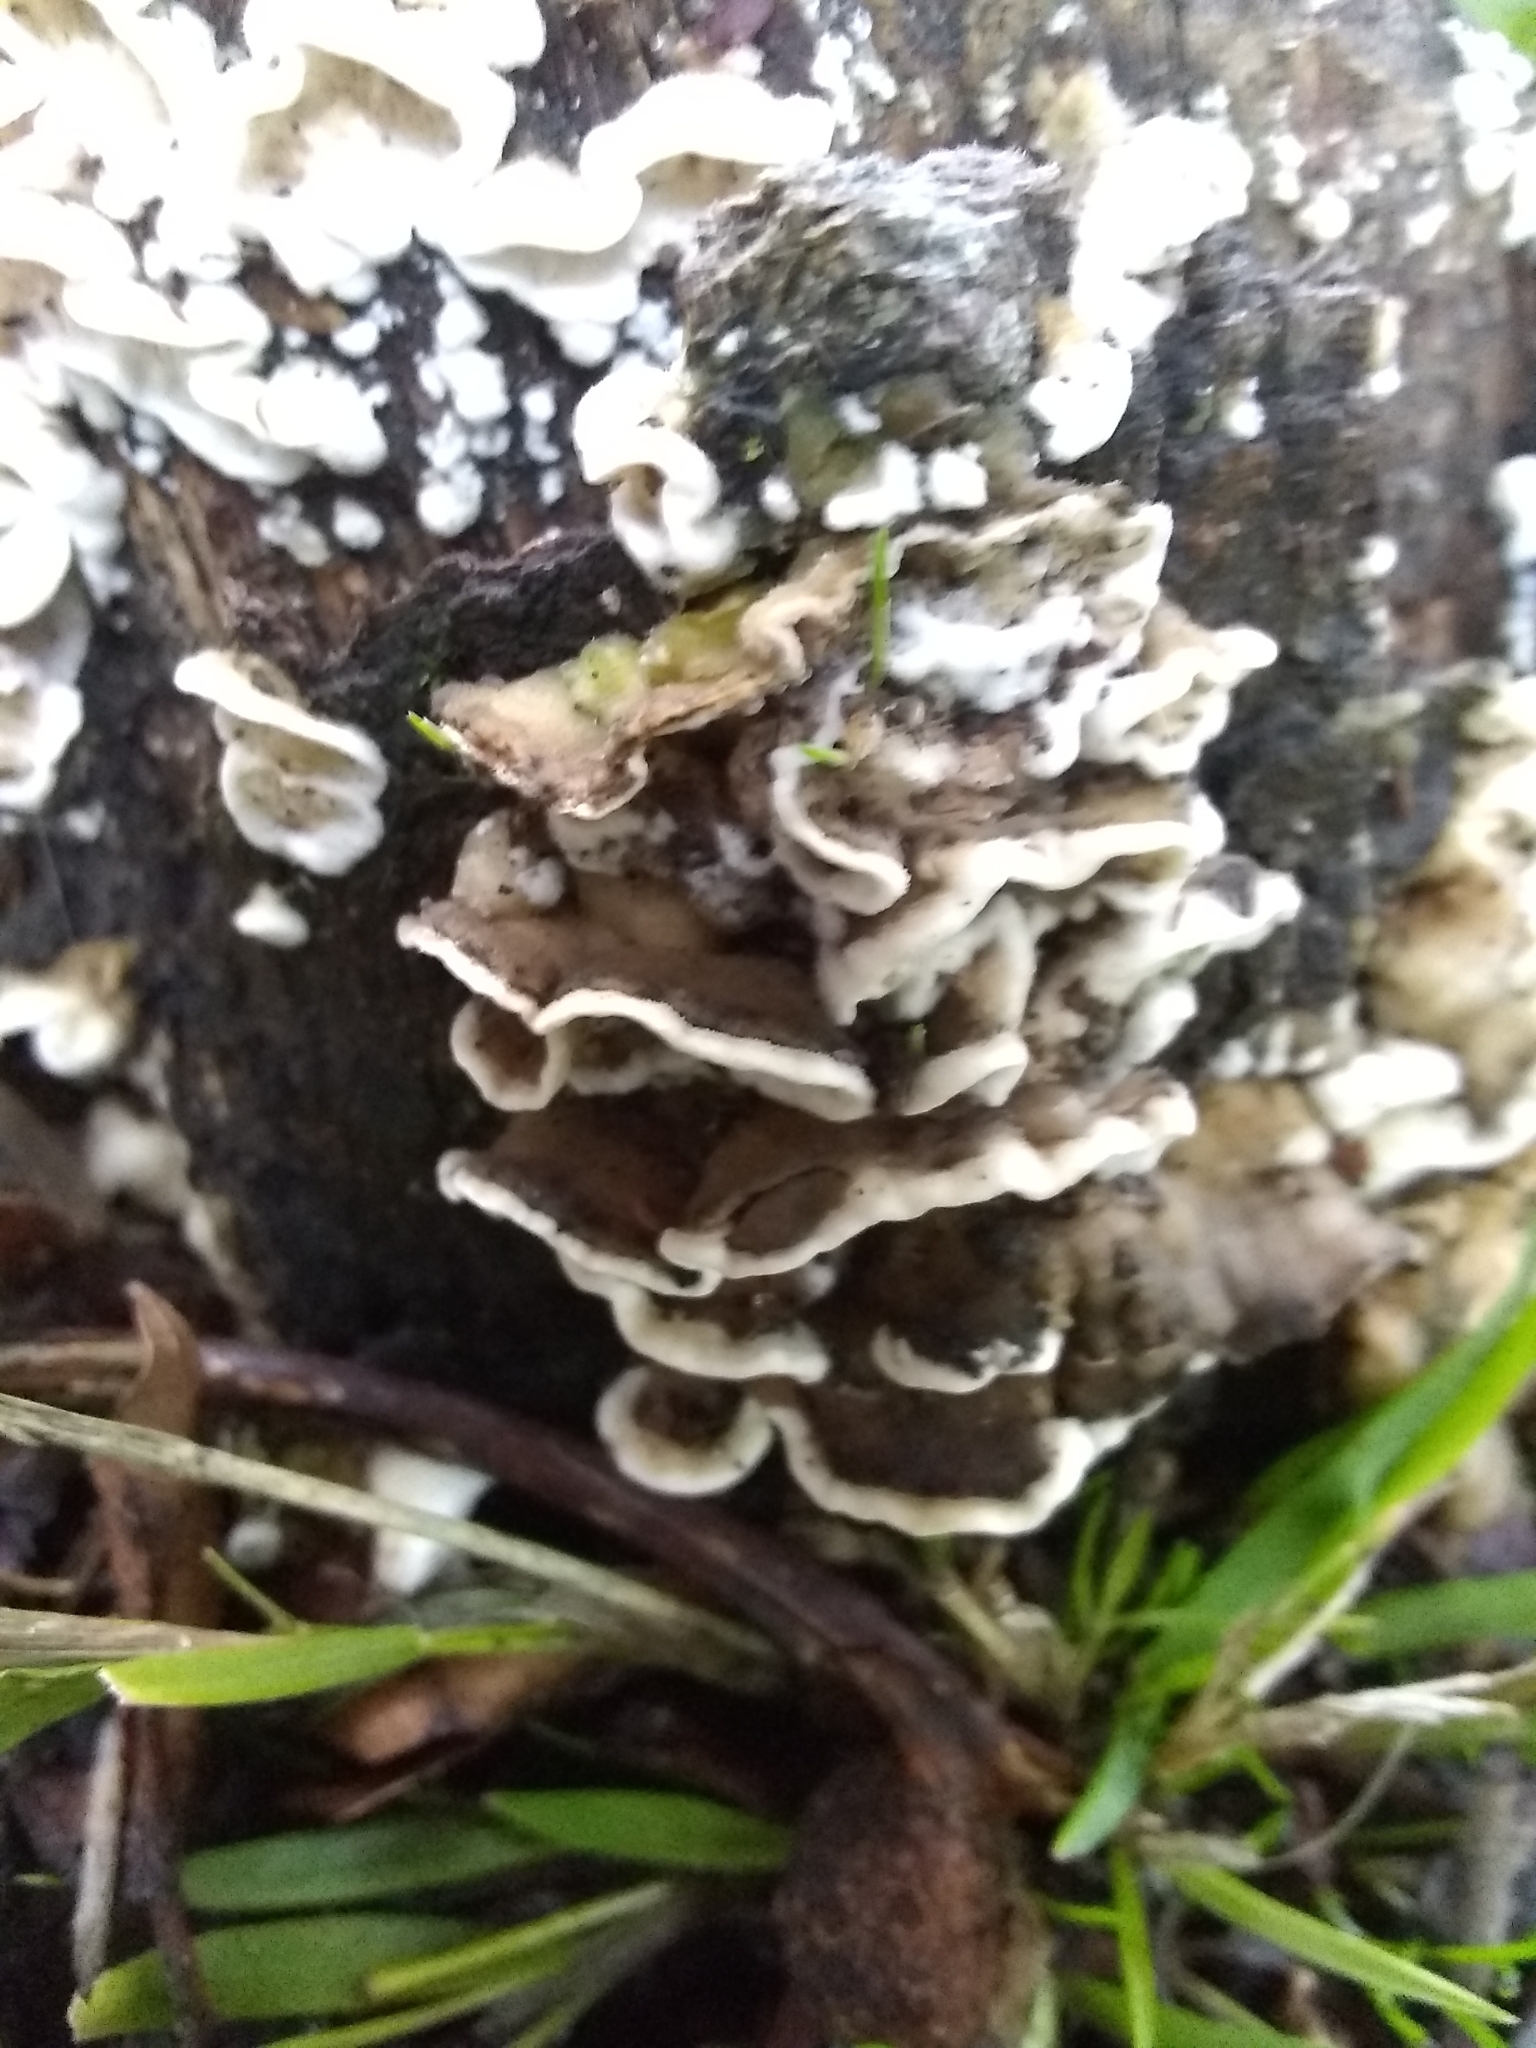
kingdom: Fungi
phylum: Basidiomycota
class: Agaricomycetes
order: Polyporales
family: Phanerochaetaceae
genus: Bjerkandera
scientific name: Bjerkandera adusta
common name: Smoky bracket
